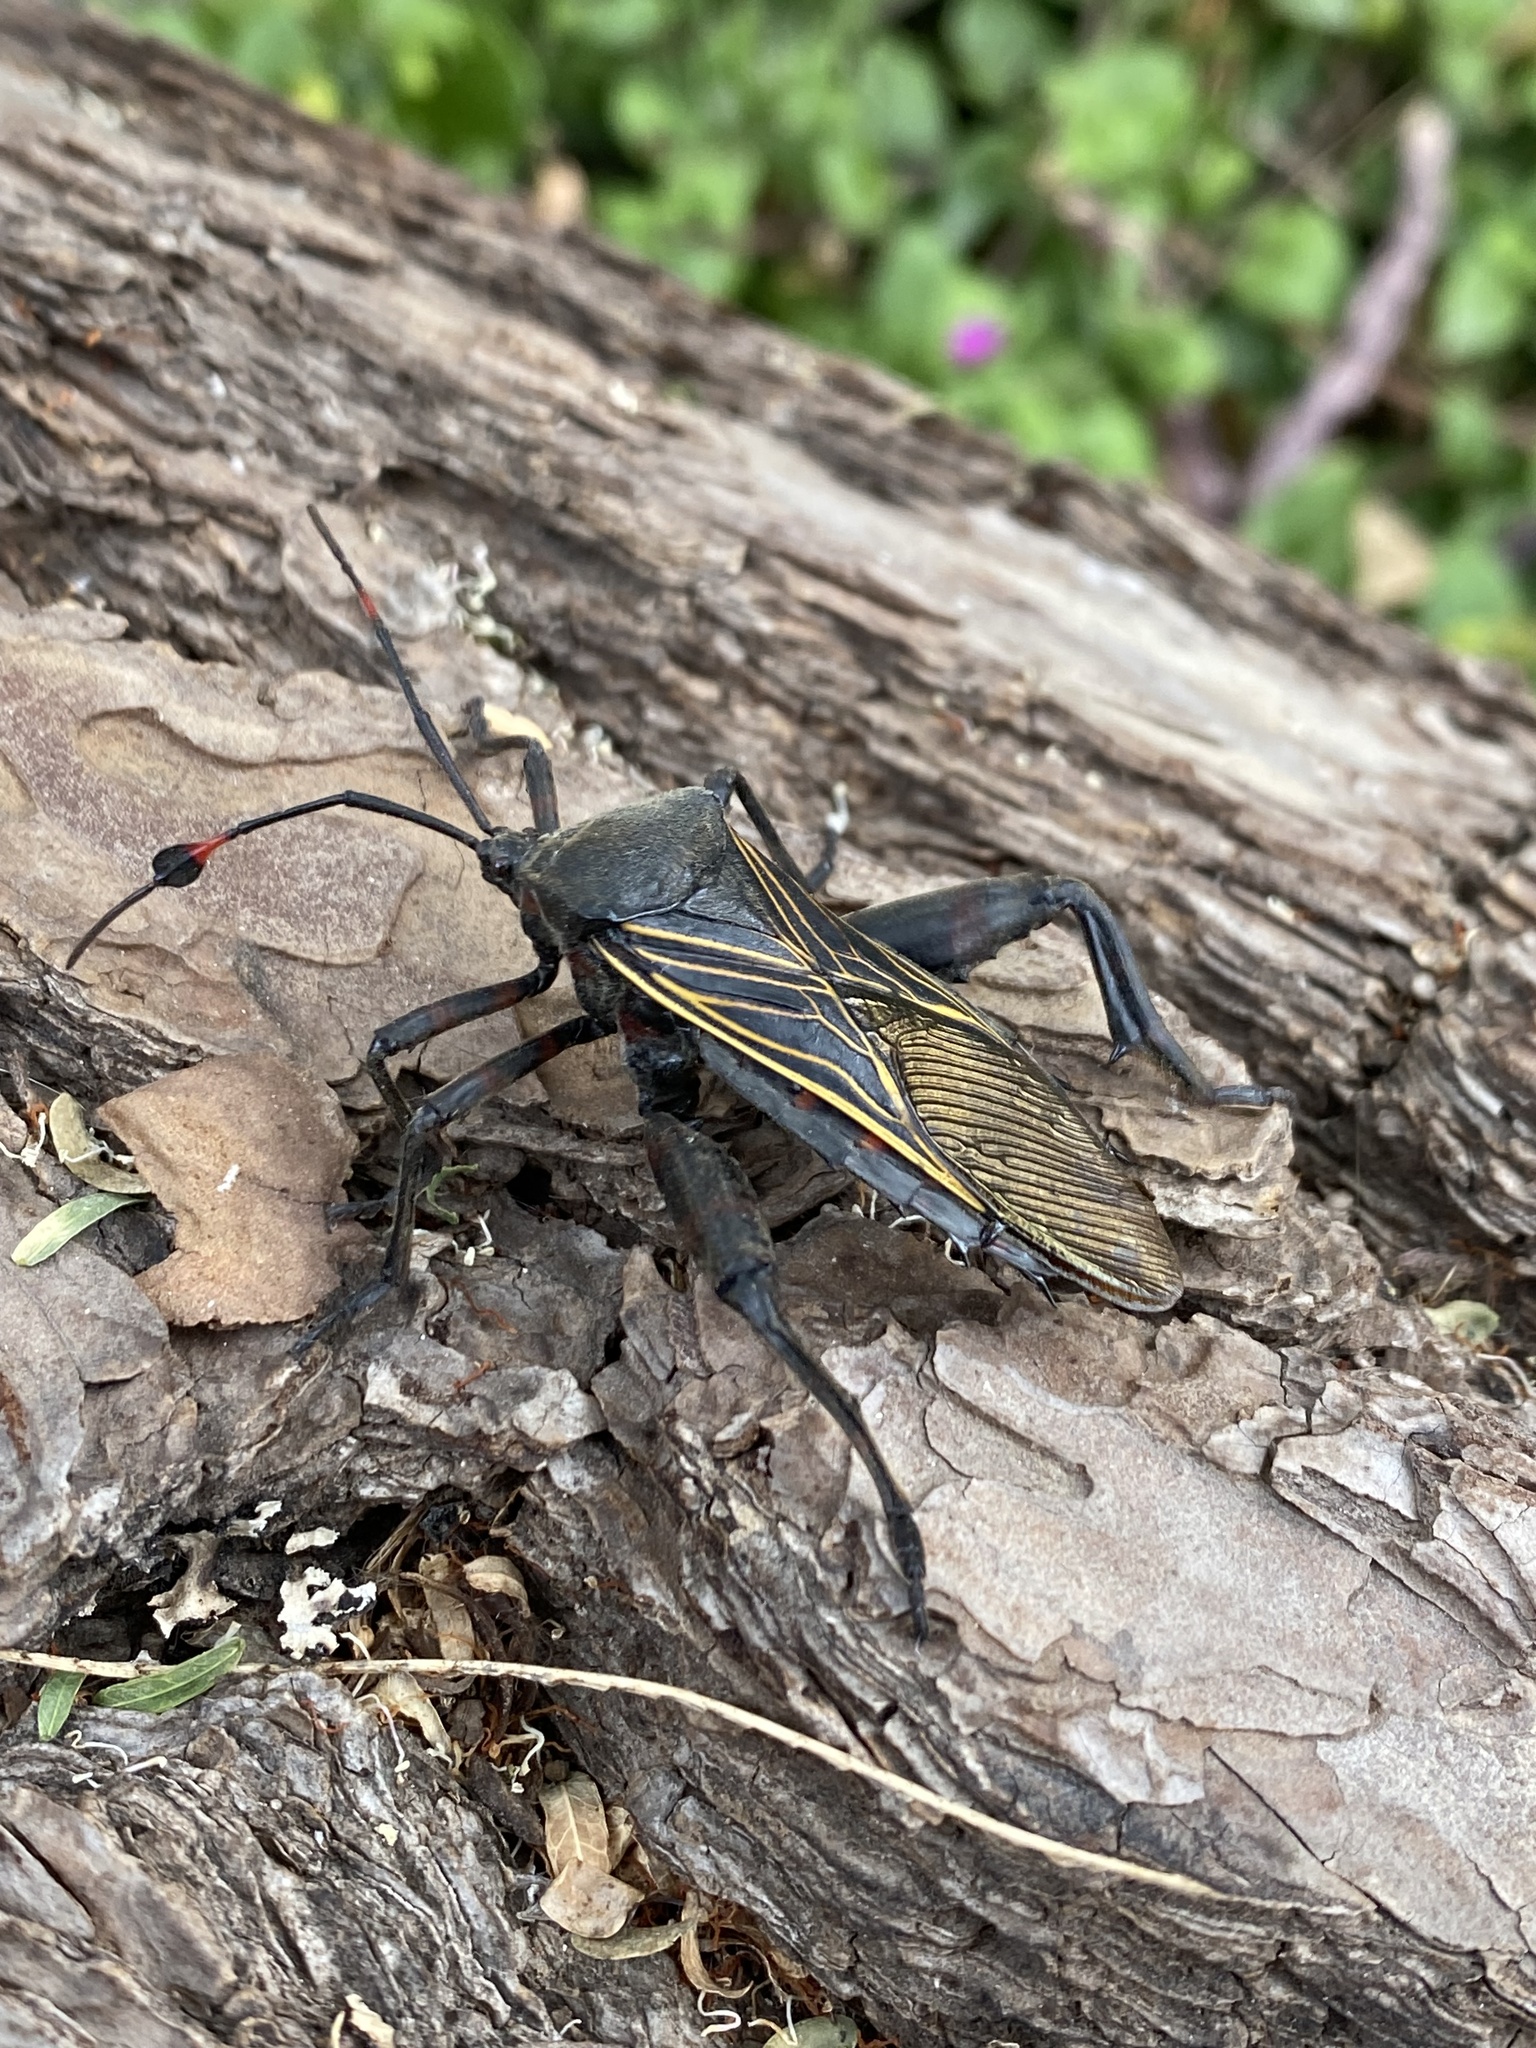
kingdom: Animalia
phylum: Arthropoda
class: Insecta
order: Hemiptera
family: Coreidae
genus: Thasus
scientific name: Thasus
